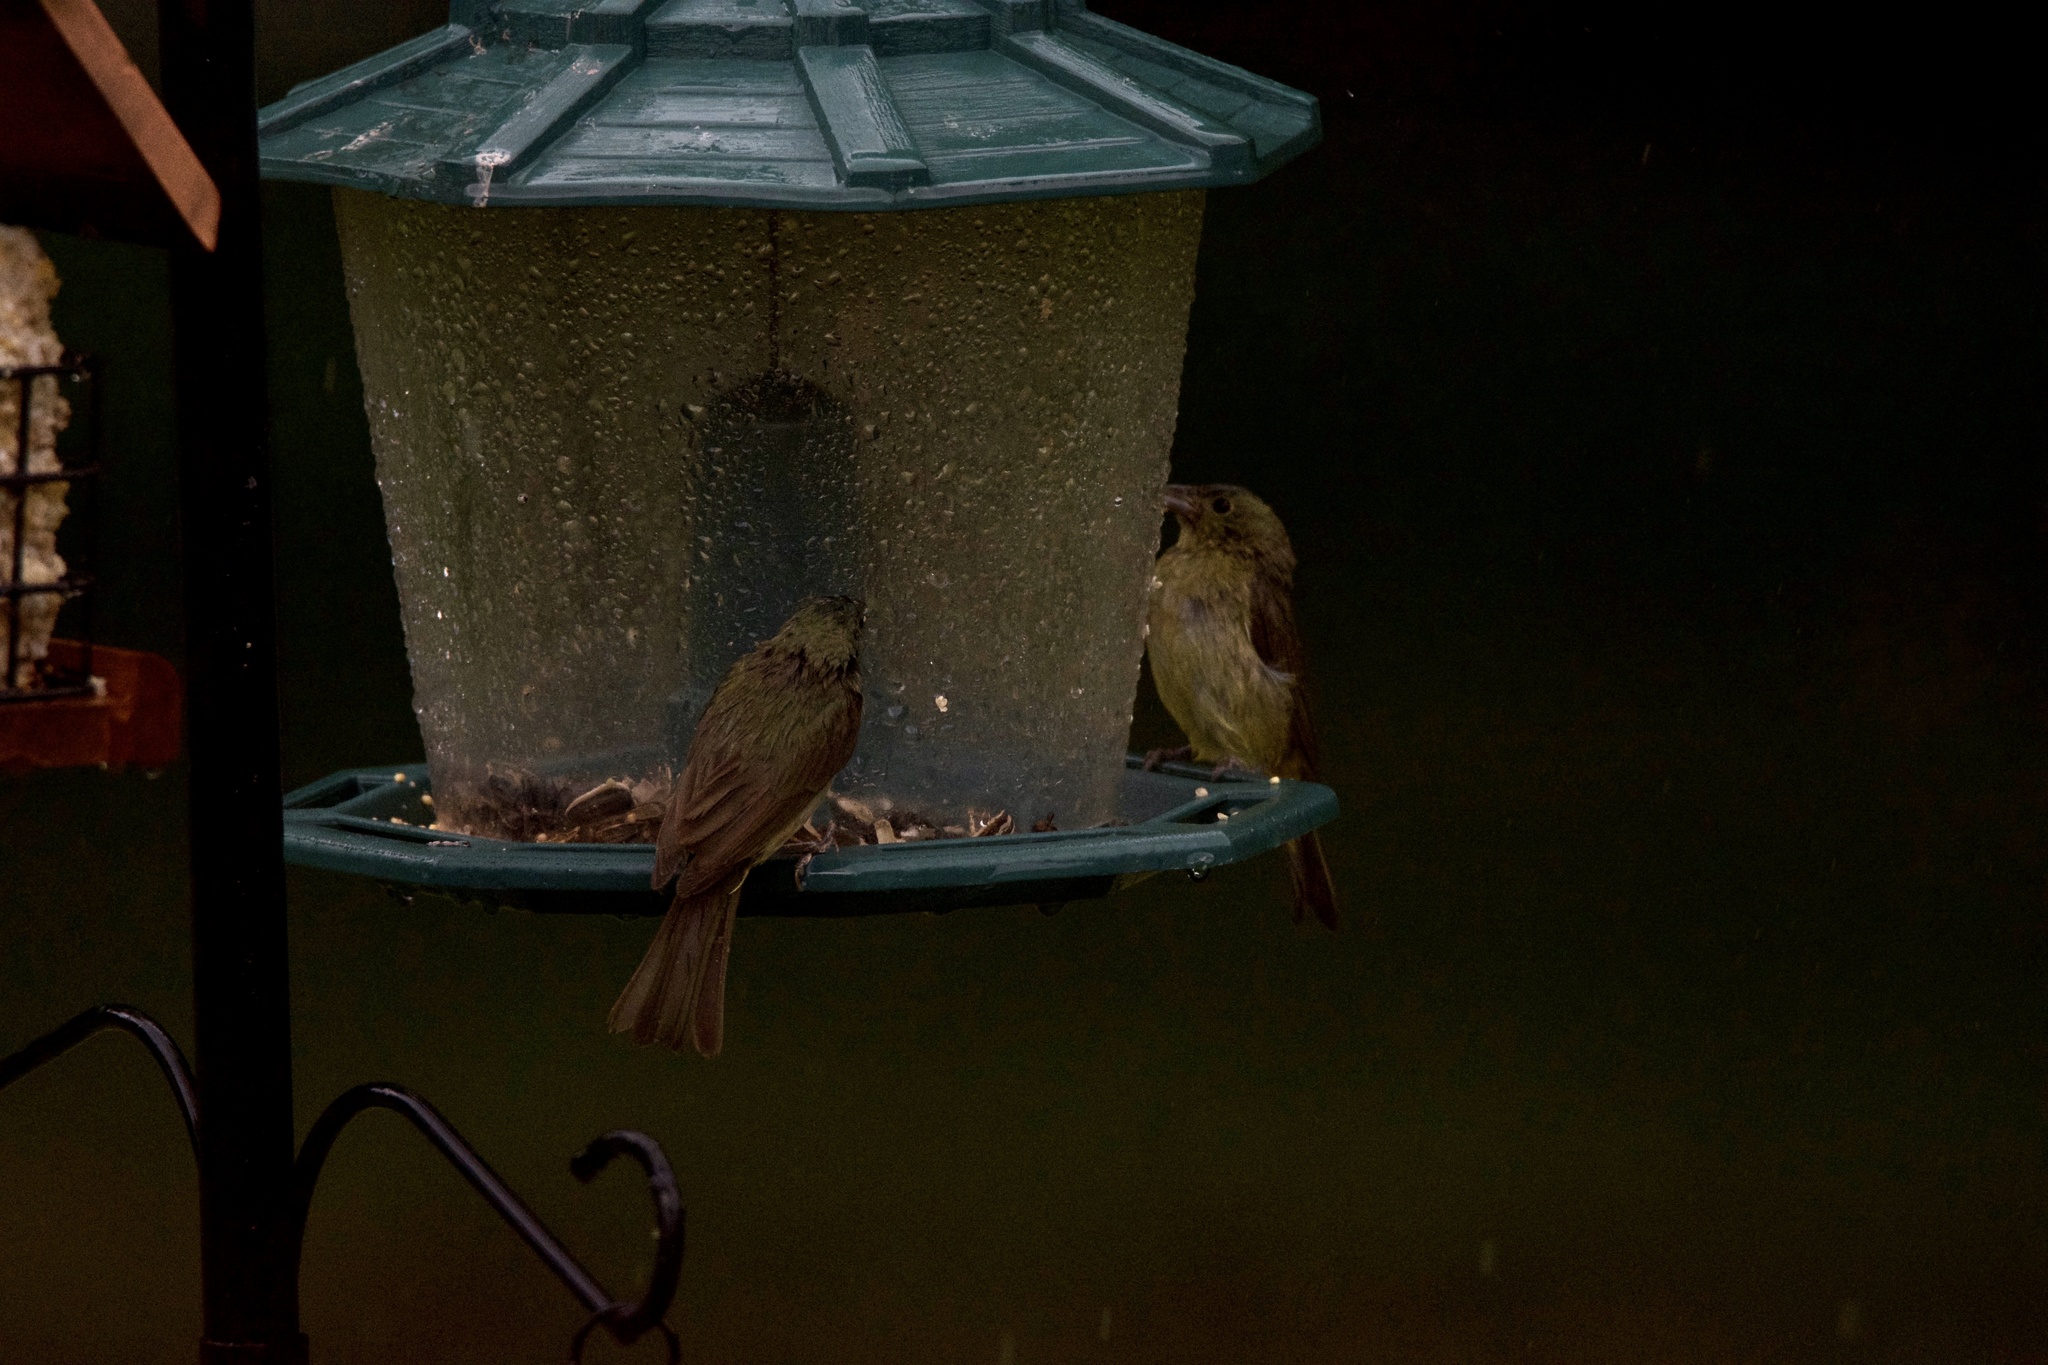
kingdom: Animalia
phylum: Chordata
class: Aves
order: Passeriformes
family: Cardinalidae
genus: Passerina
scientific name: Passerina ciris
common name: Painted bunting
